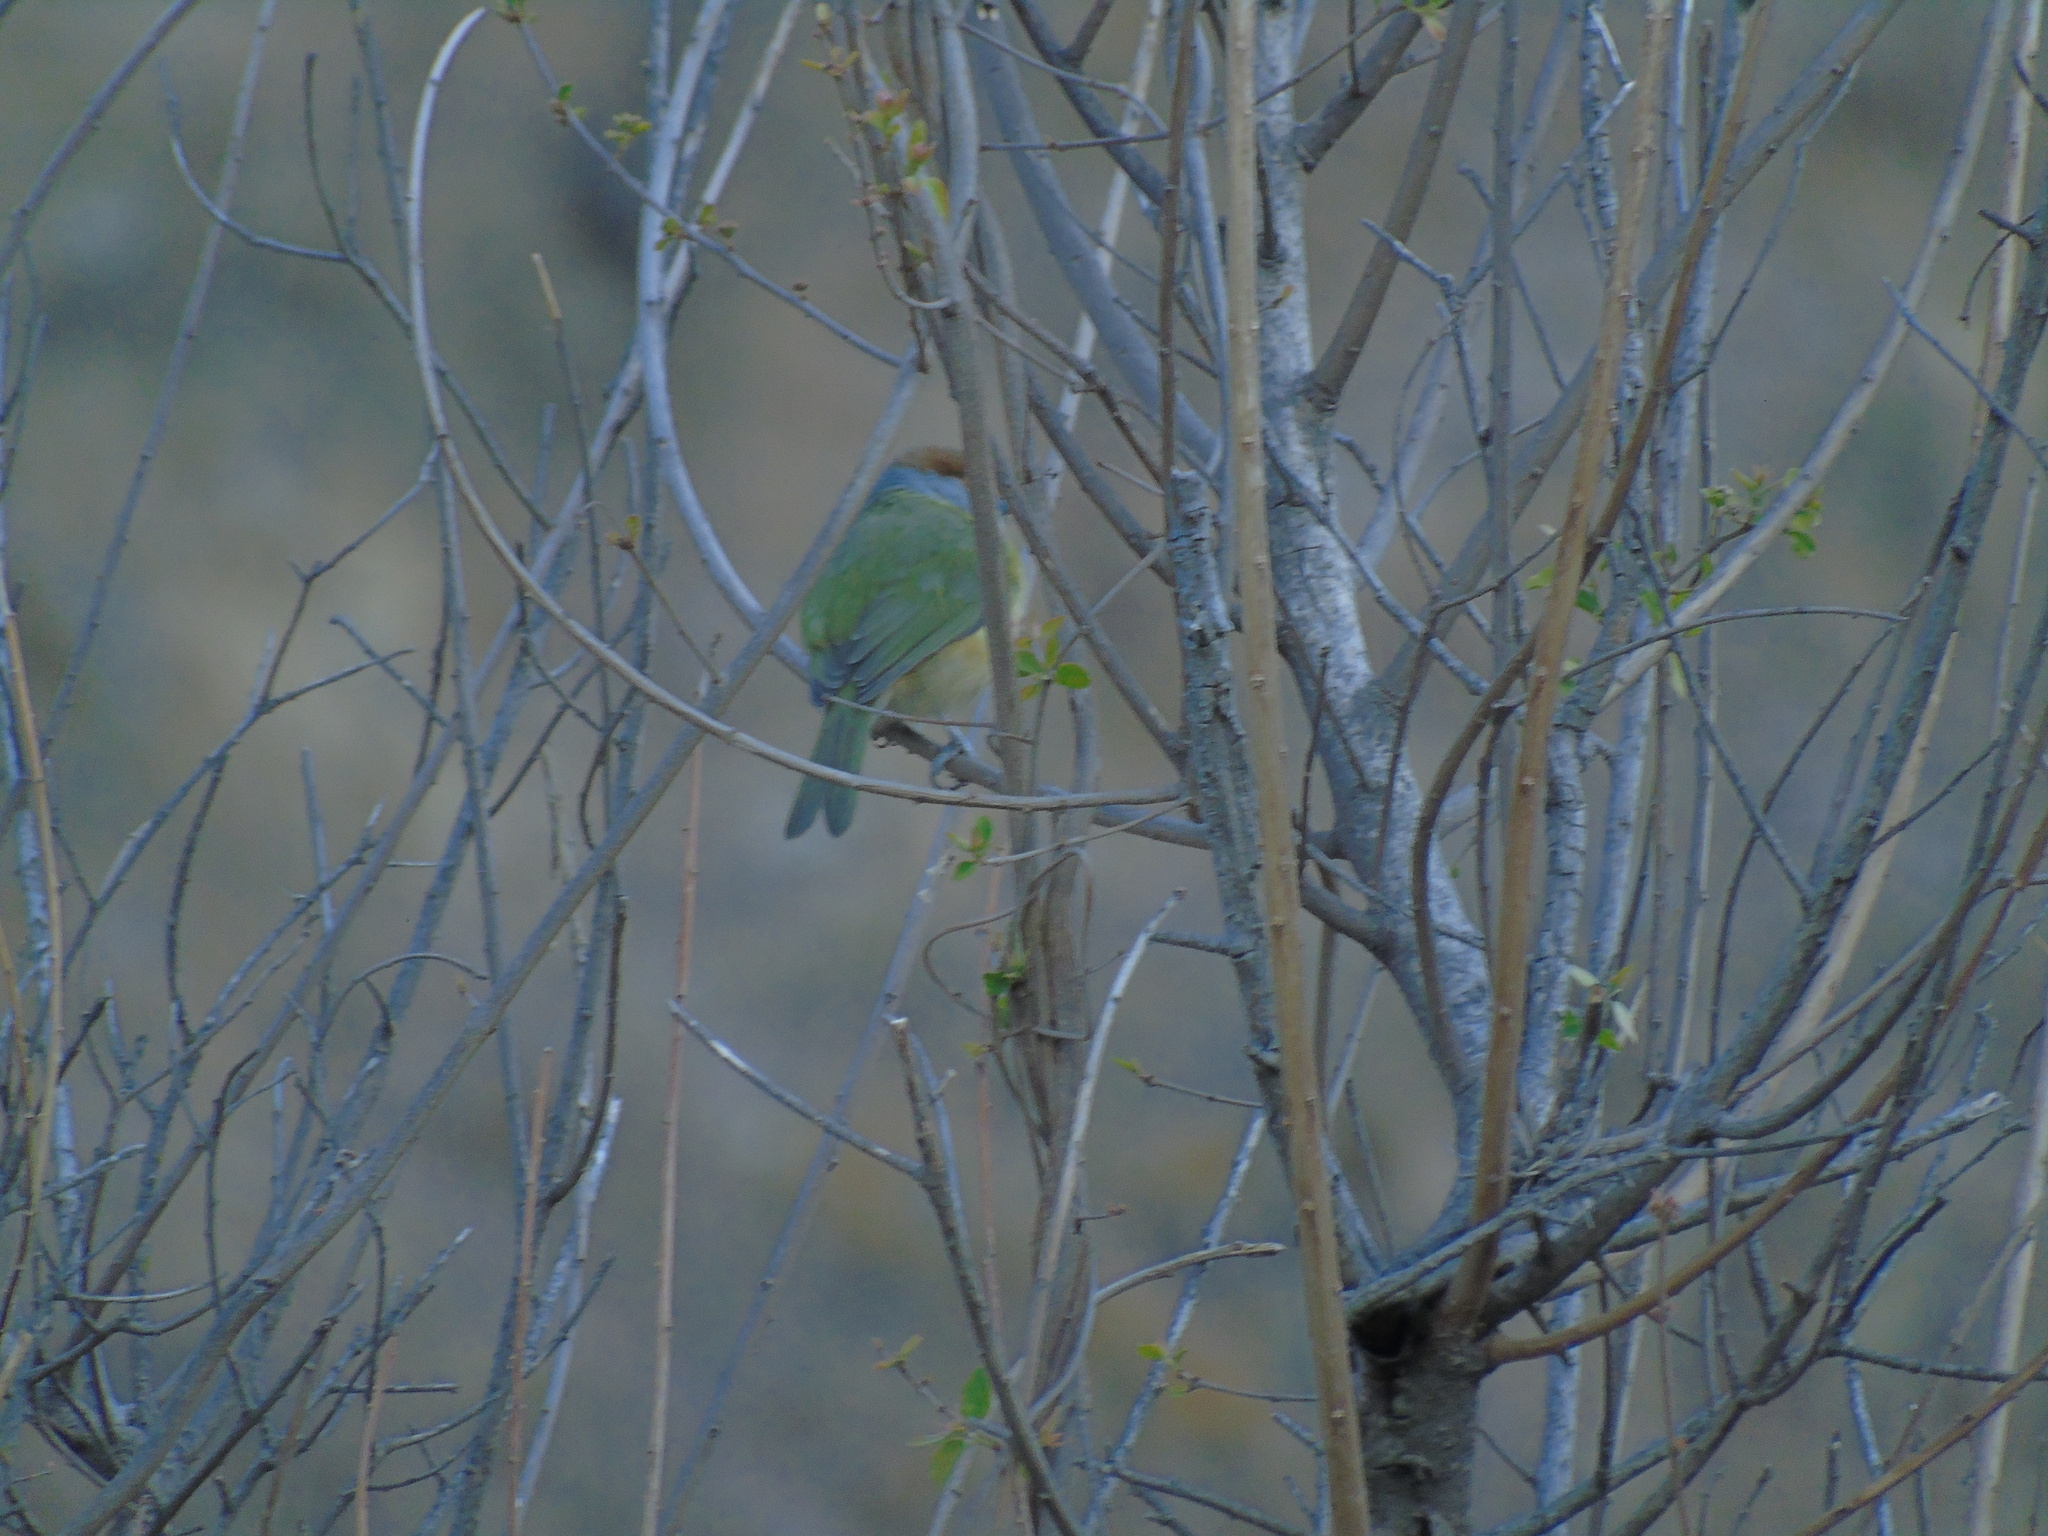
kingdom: Animalia
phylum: Chordata
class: Aves
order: Passeriformes
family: Vireonidae
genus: Cyclarhis
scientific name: Cyclarhis gujanensis
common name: Rufous-browed peppershrike
